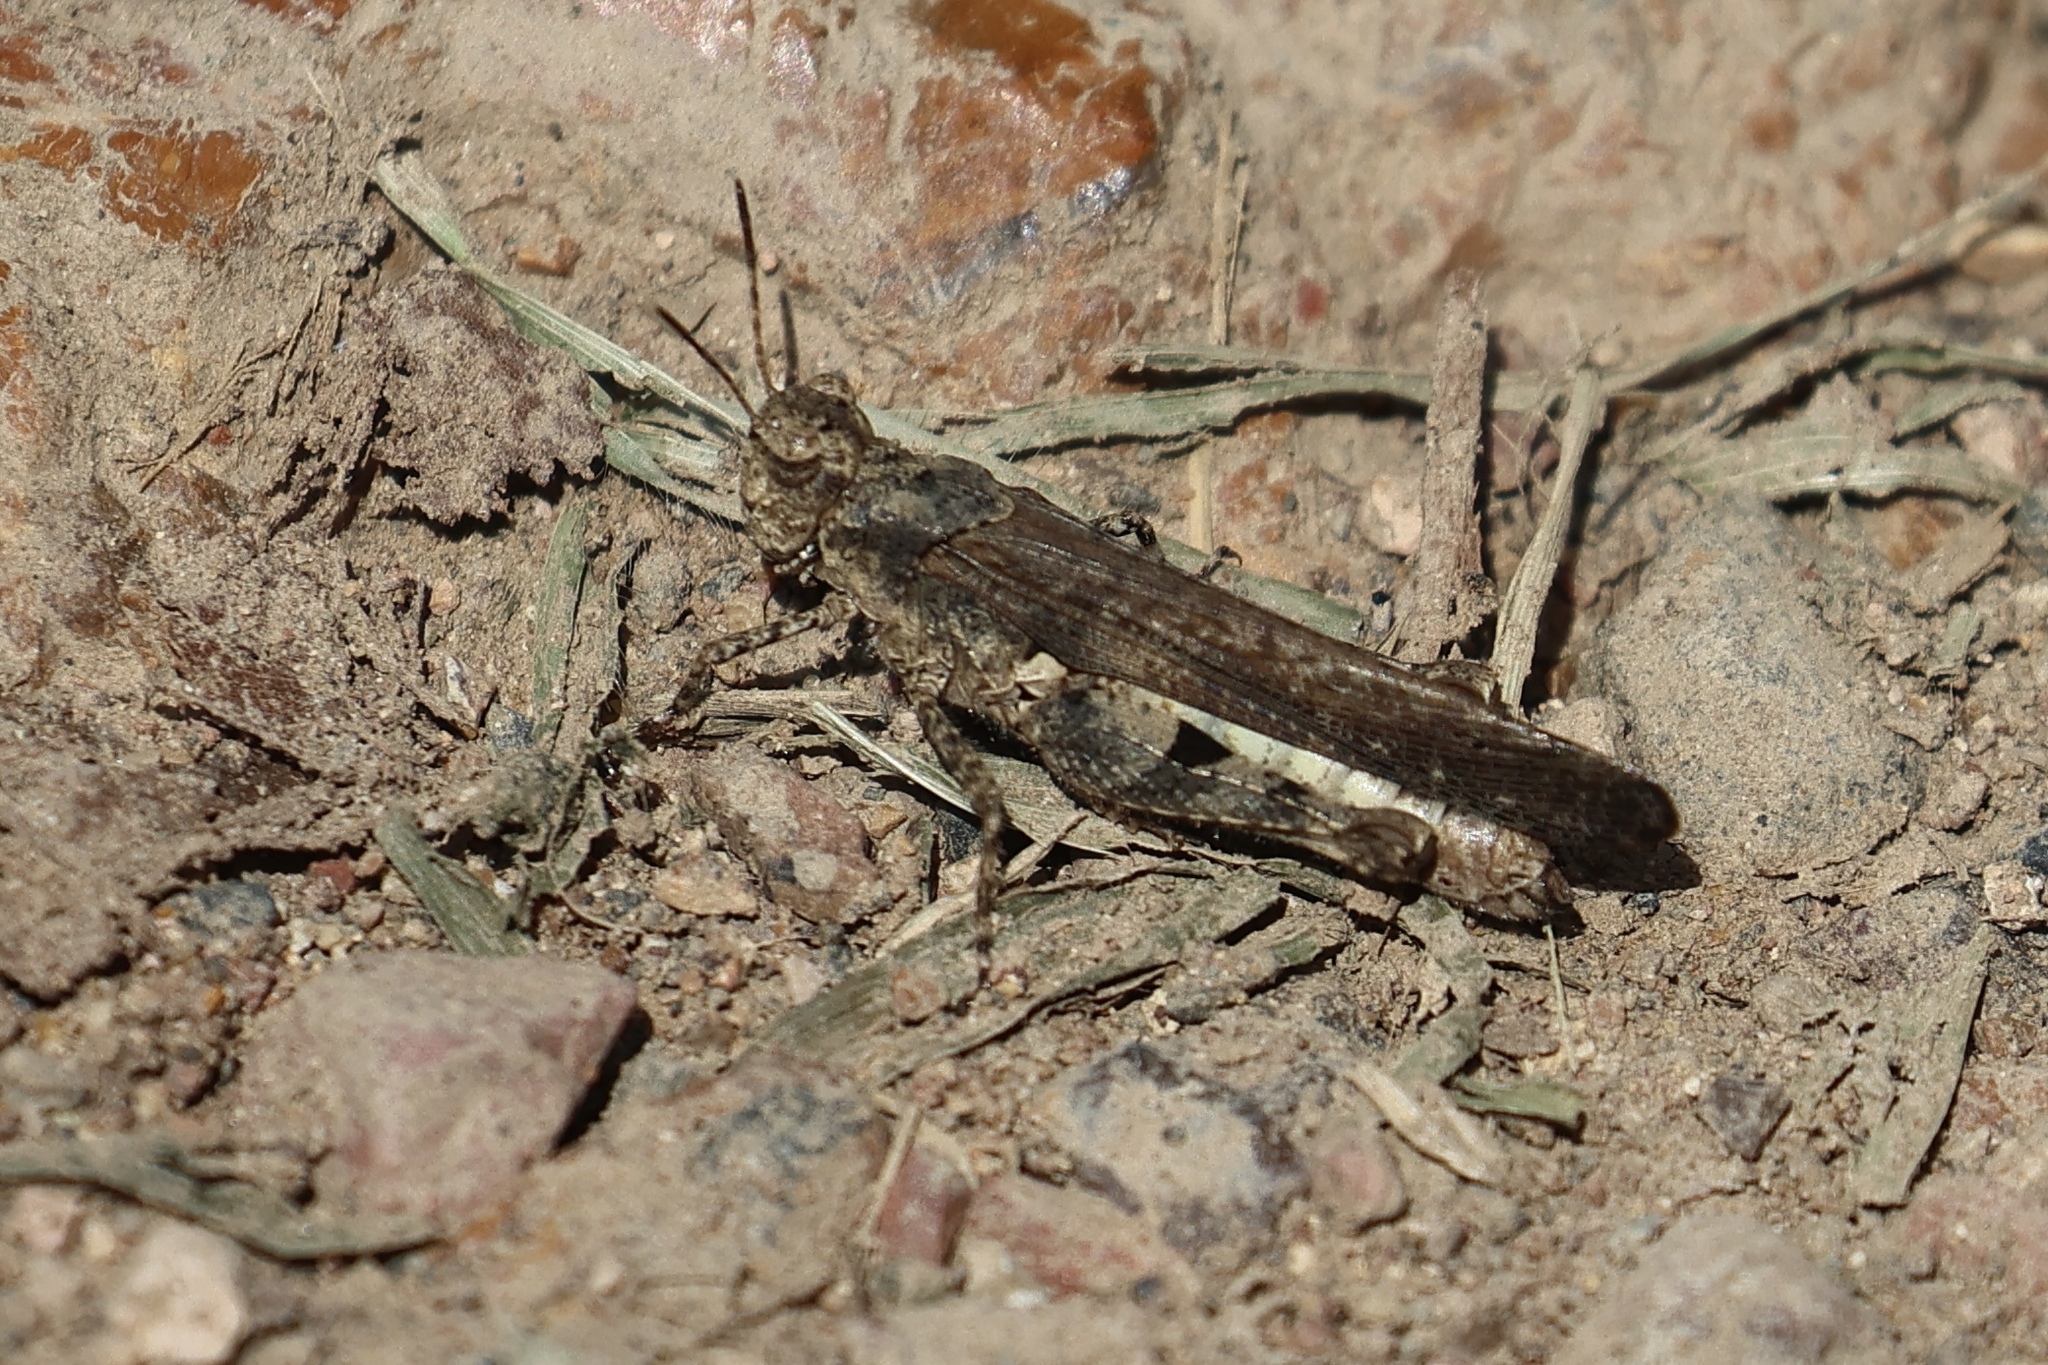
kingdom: Animalia
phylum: Arthropoda
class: Insecta
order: Orthoptera
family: Acrididae
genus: Trilophidia
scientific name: Trilophidia annulata
